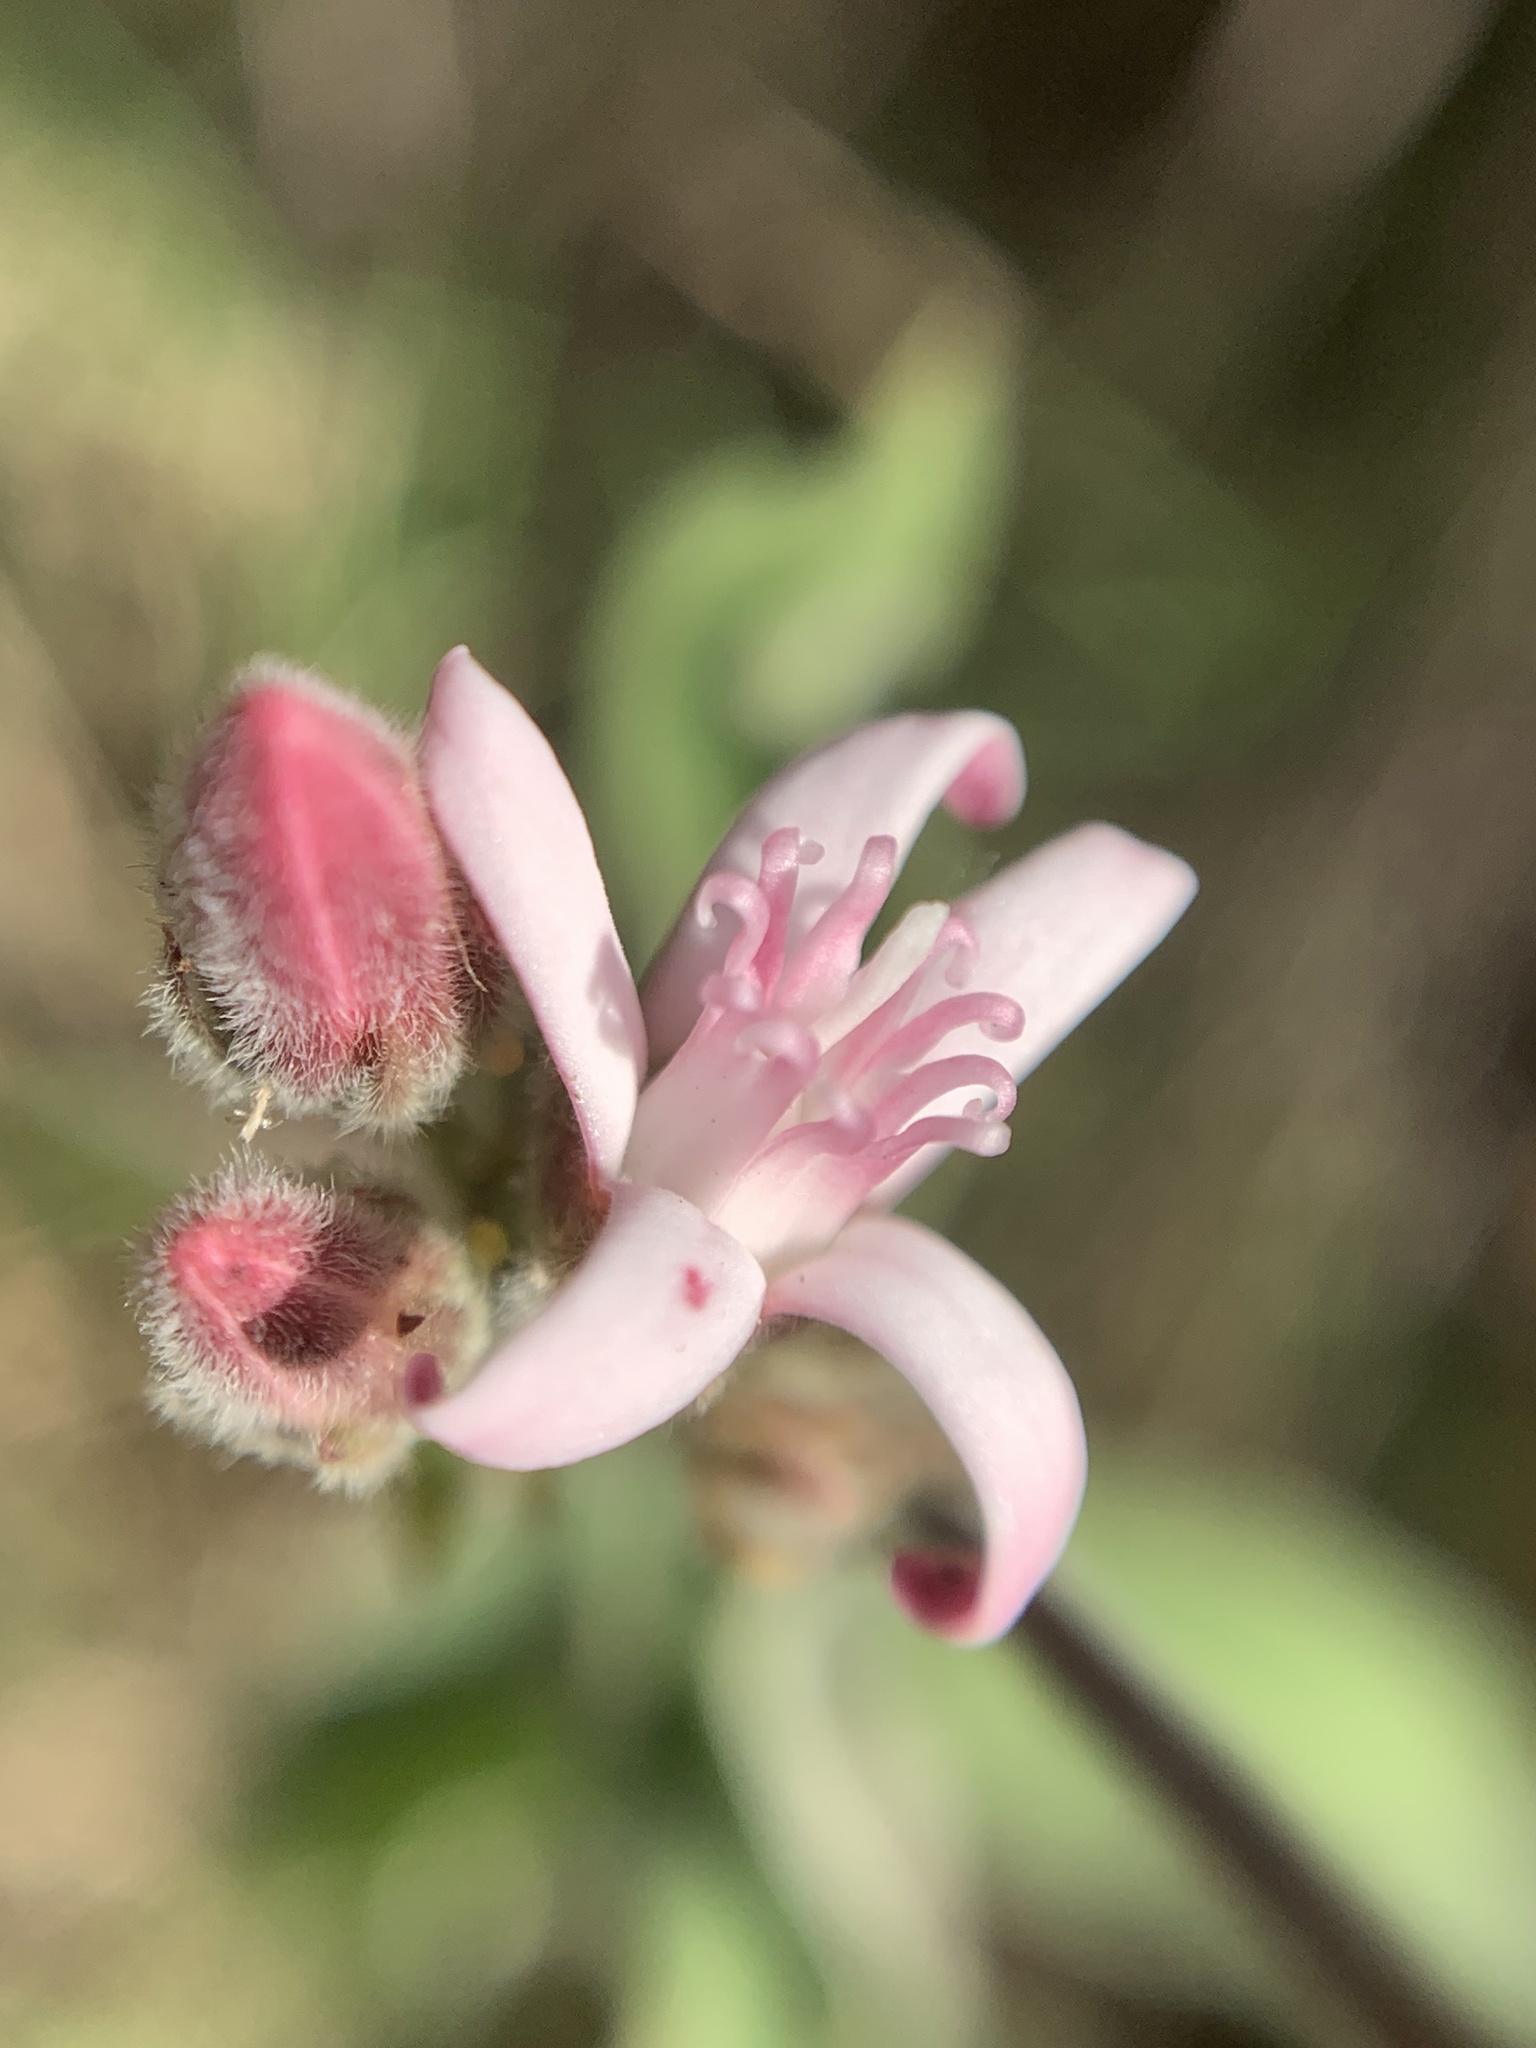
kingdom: Plantae
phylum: Tracheophyta
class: Magnoliopsida
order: Gentianales
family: Apocynaceae
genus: Oxypetalum
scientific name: Oxypetalum solanoides
